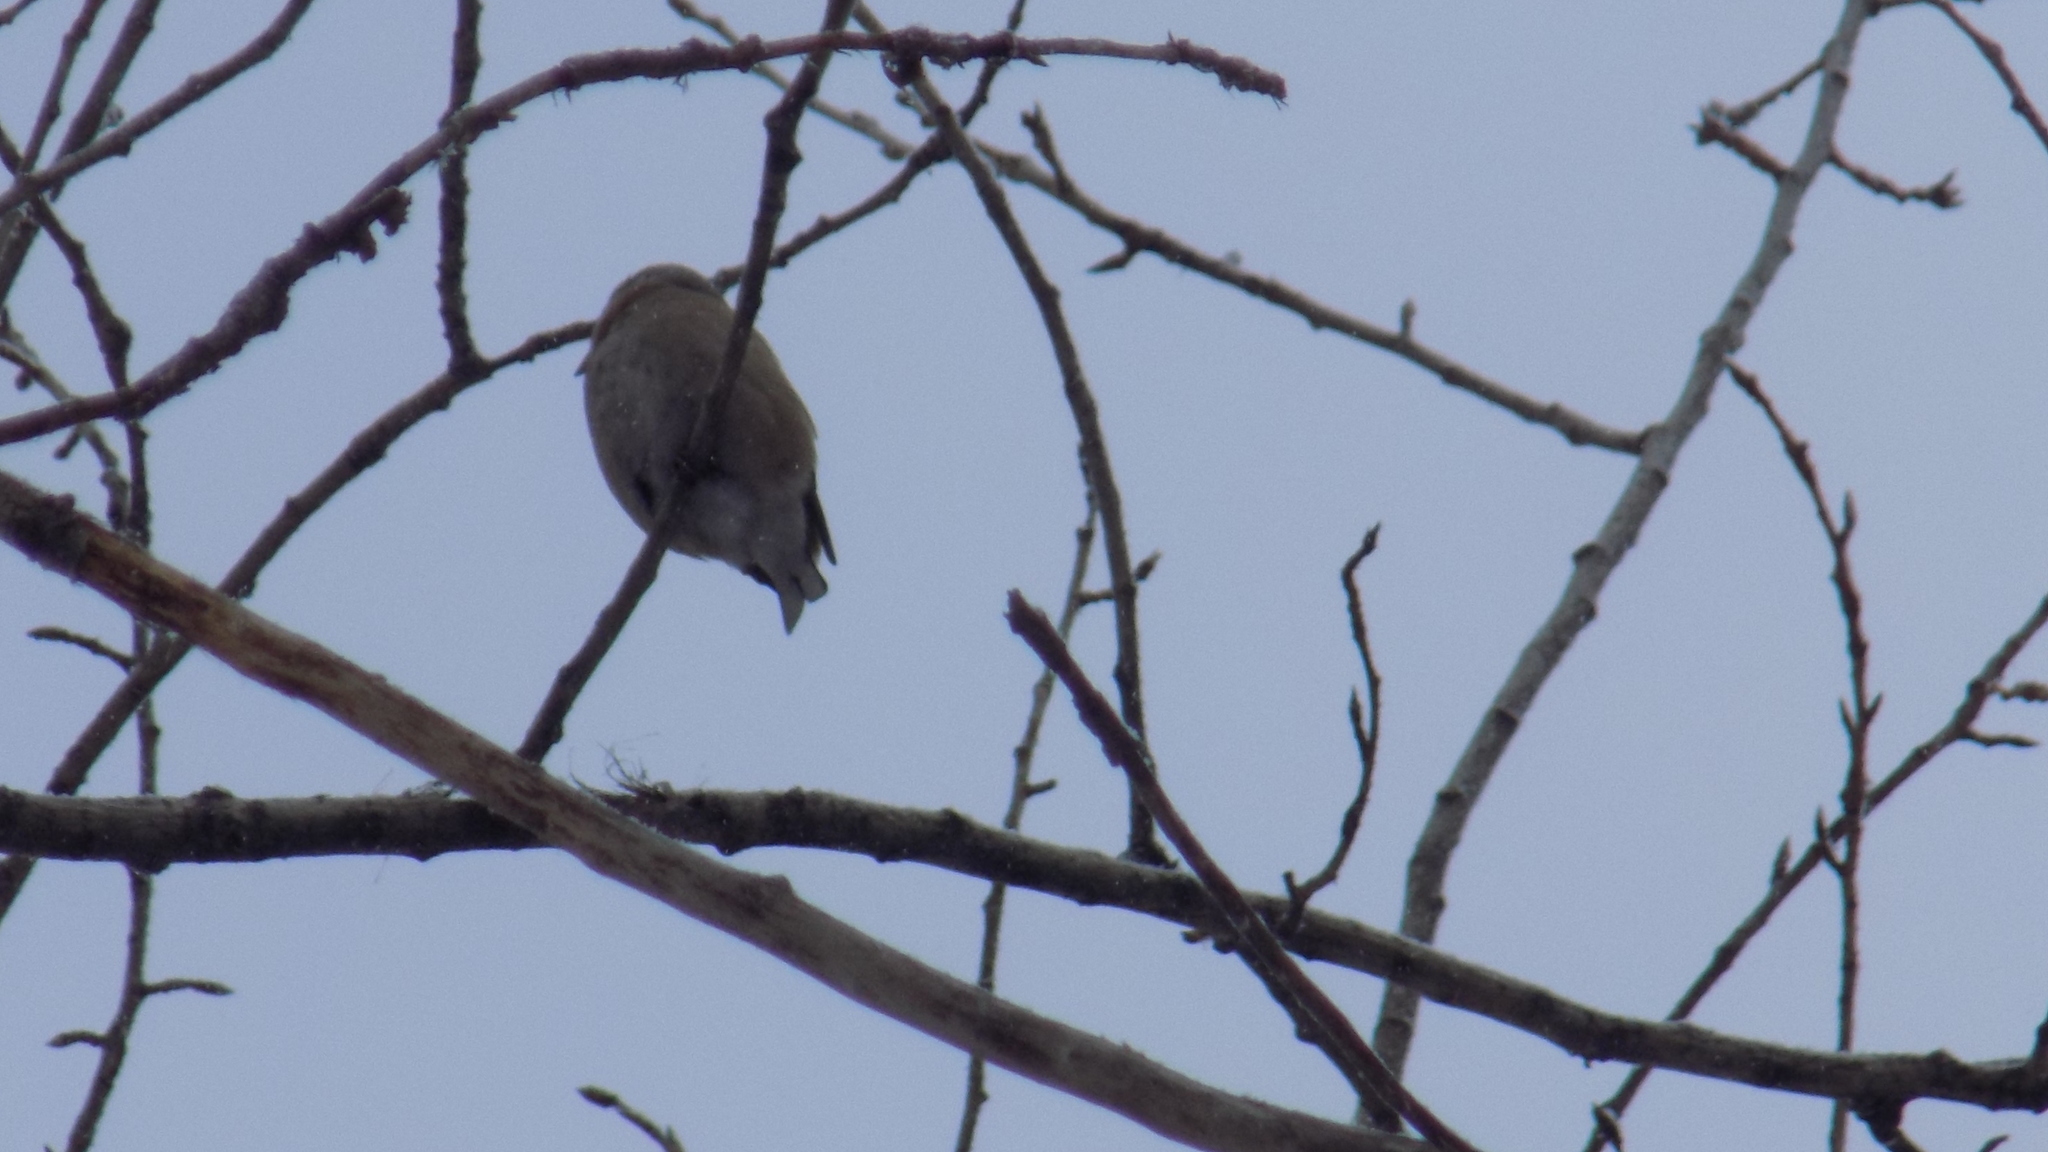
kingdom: Animalia
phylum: Chordata
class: Aves
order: Passeriformes
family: Fringillidae
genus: Coccothraustes
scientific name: Coccothraustes coccothraustes
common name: Hawfinch
